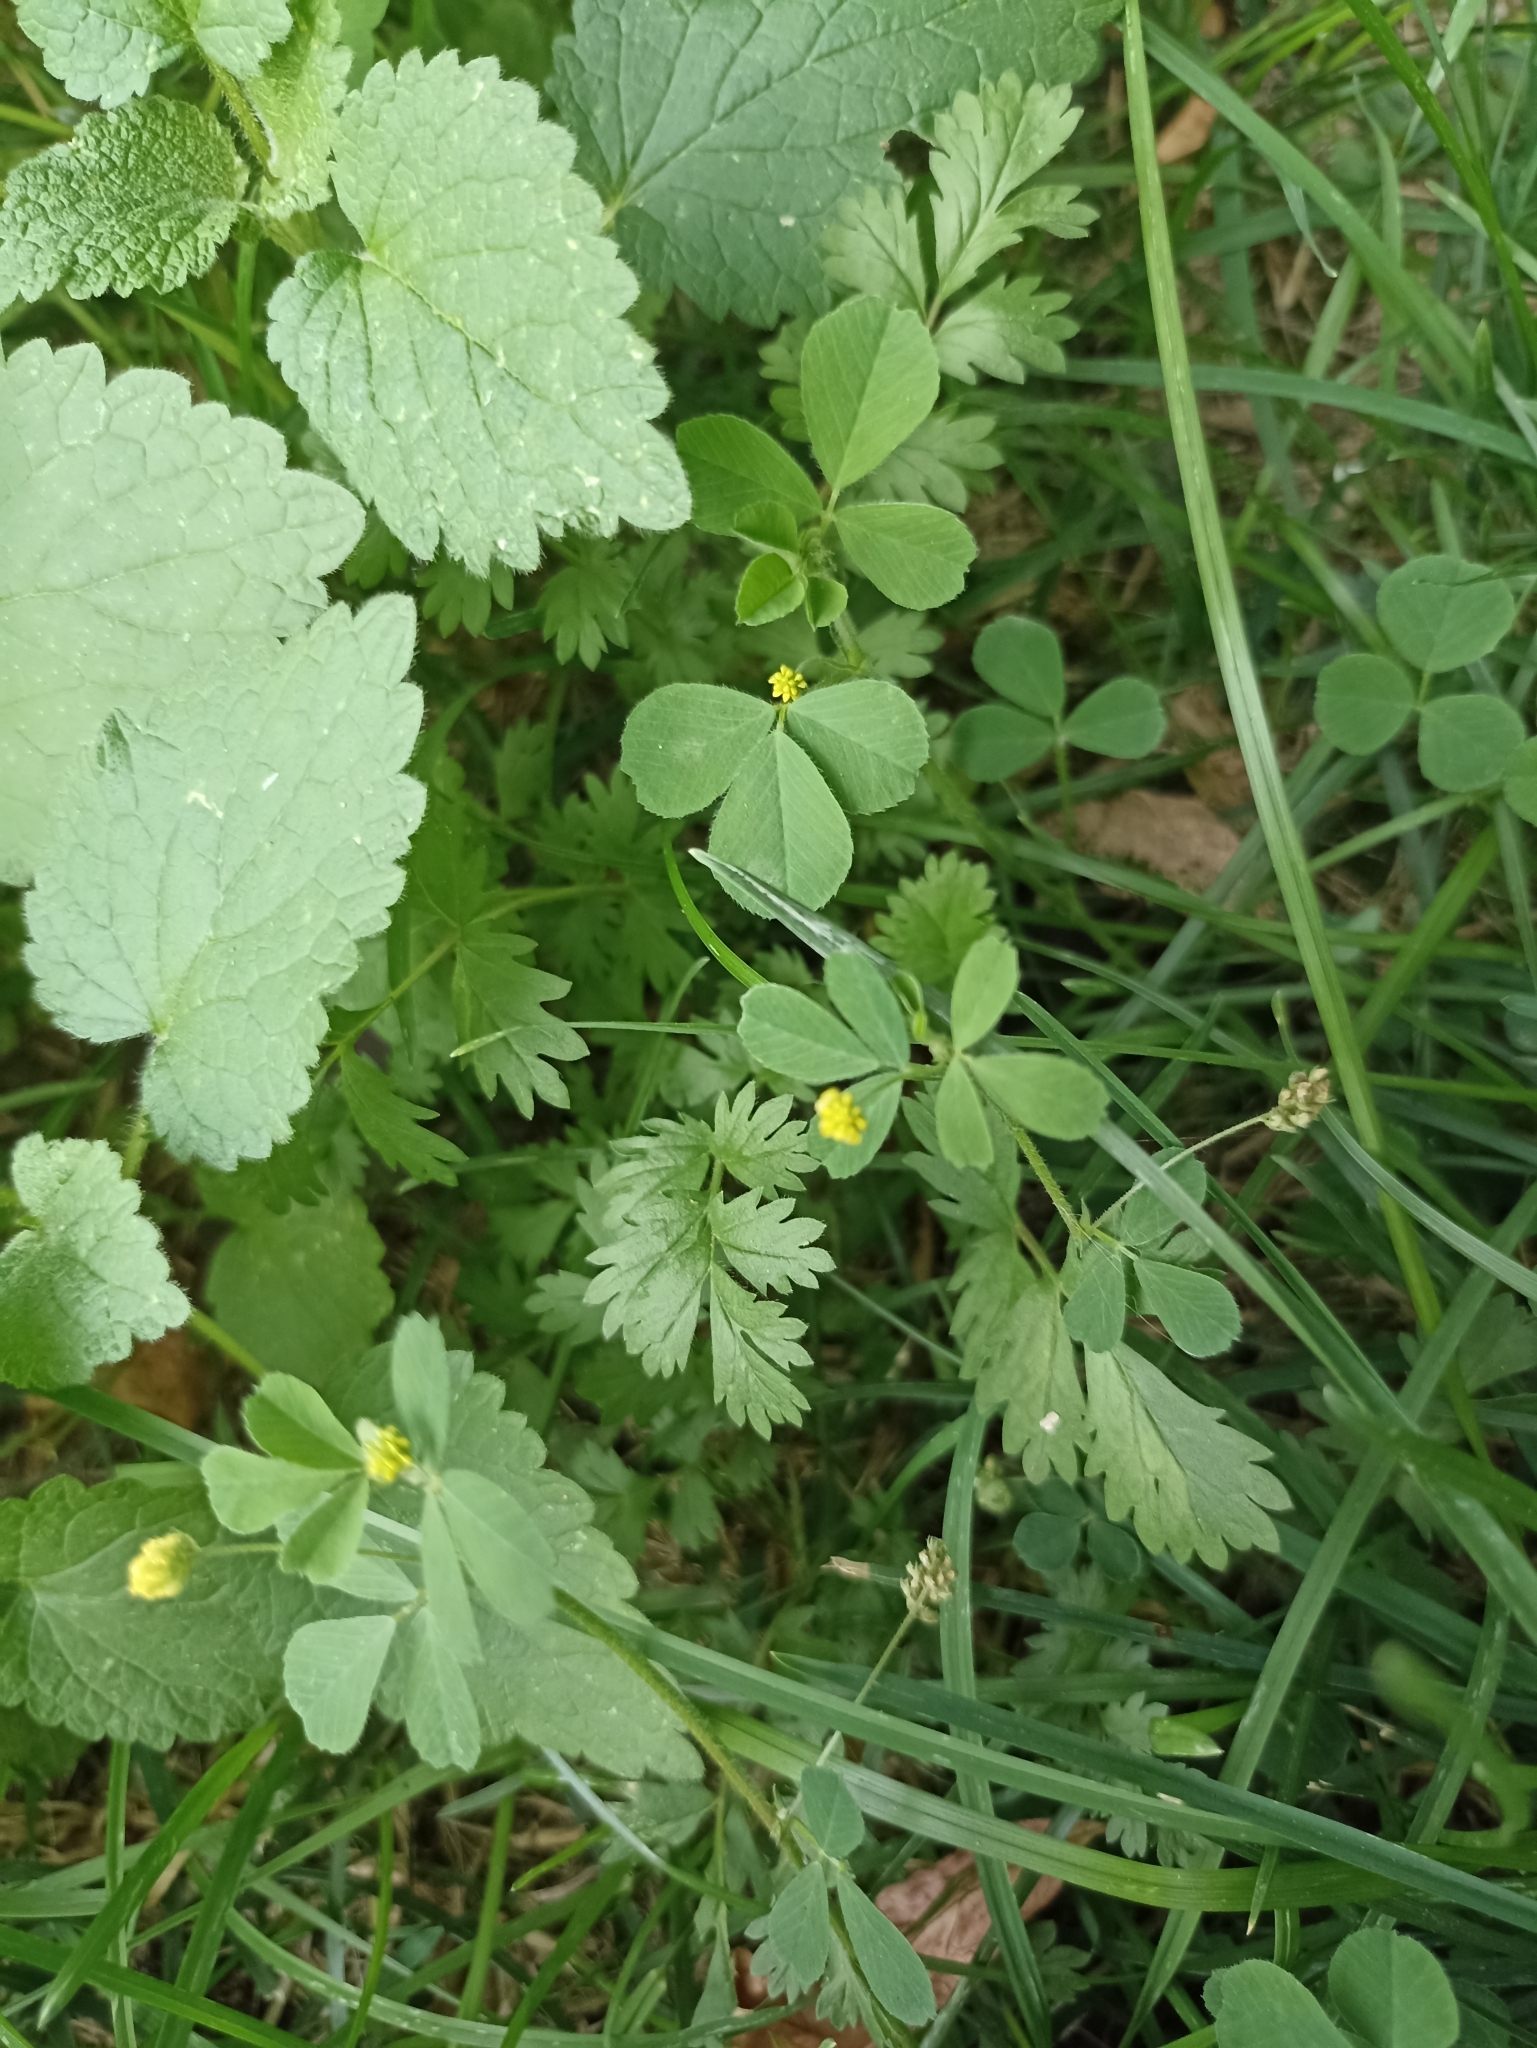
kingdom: Plantae
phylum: Tracheophyta
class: Magnoliopsida
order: Fabales
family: Fabaceae
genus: Medicago
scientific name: Medicago lupulina
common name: Black medick
